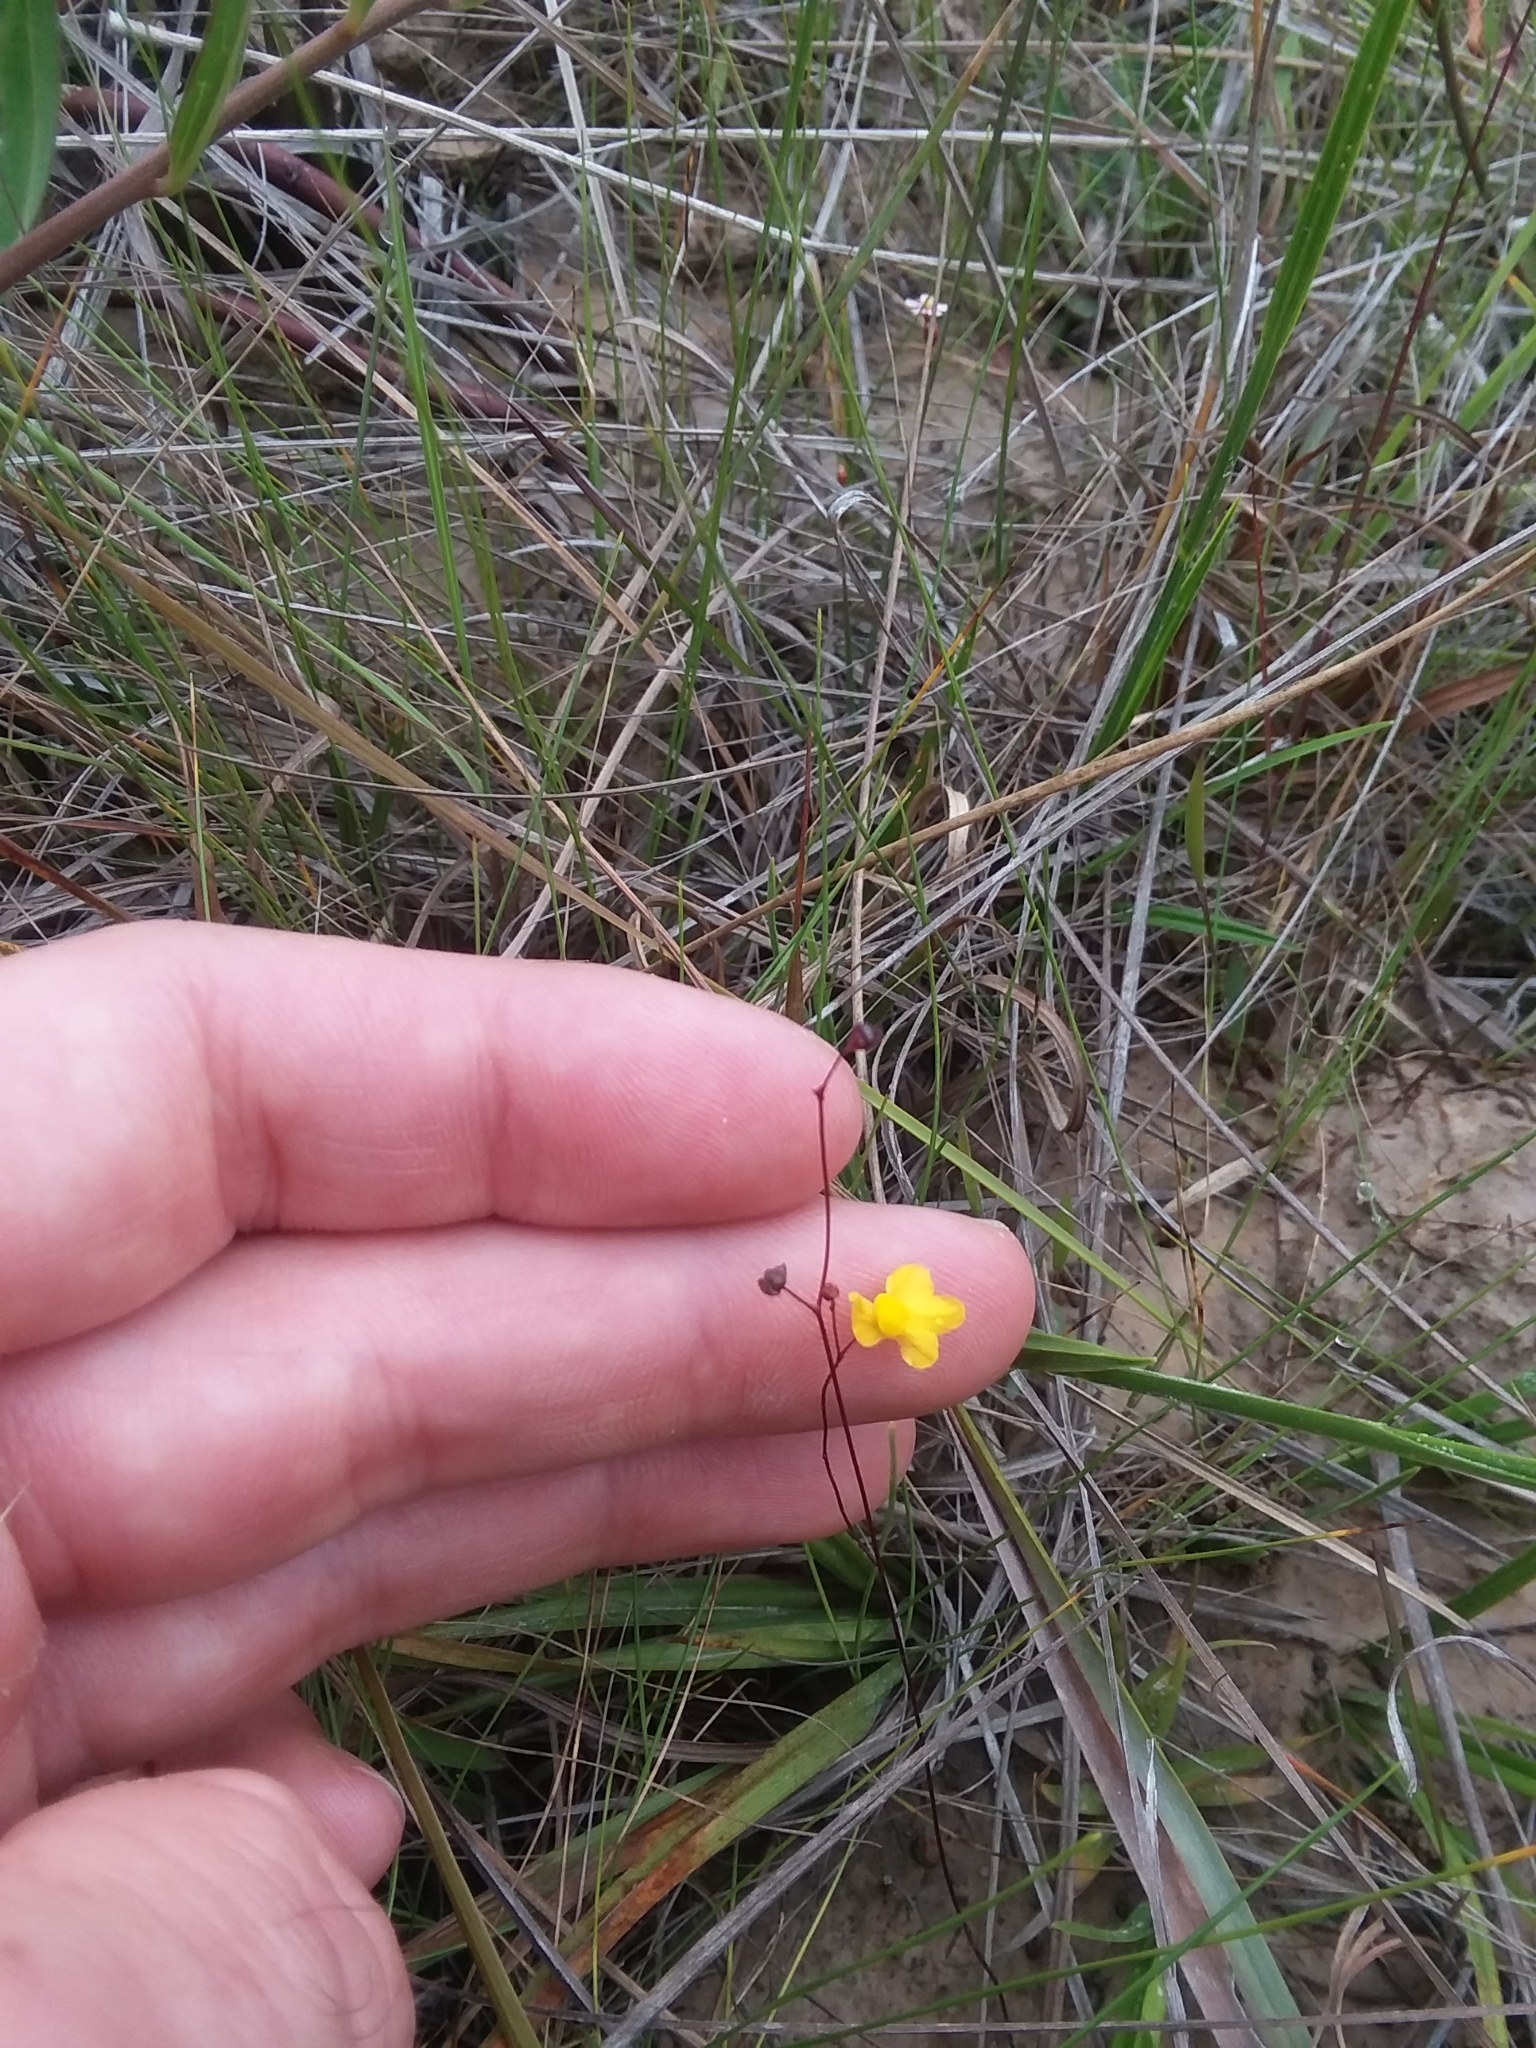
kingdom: Plantae
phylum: Tracheophyta
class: Magnoliopsida
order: Lamiales
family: Lentibulariaceae
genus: Utricularia
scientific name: Utricularia subulata
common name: Tiny bladderwort
